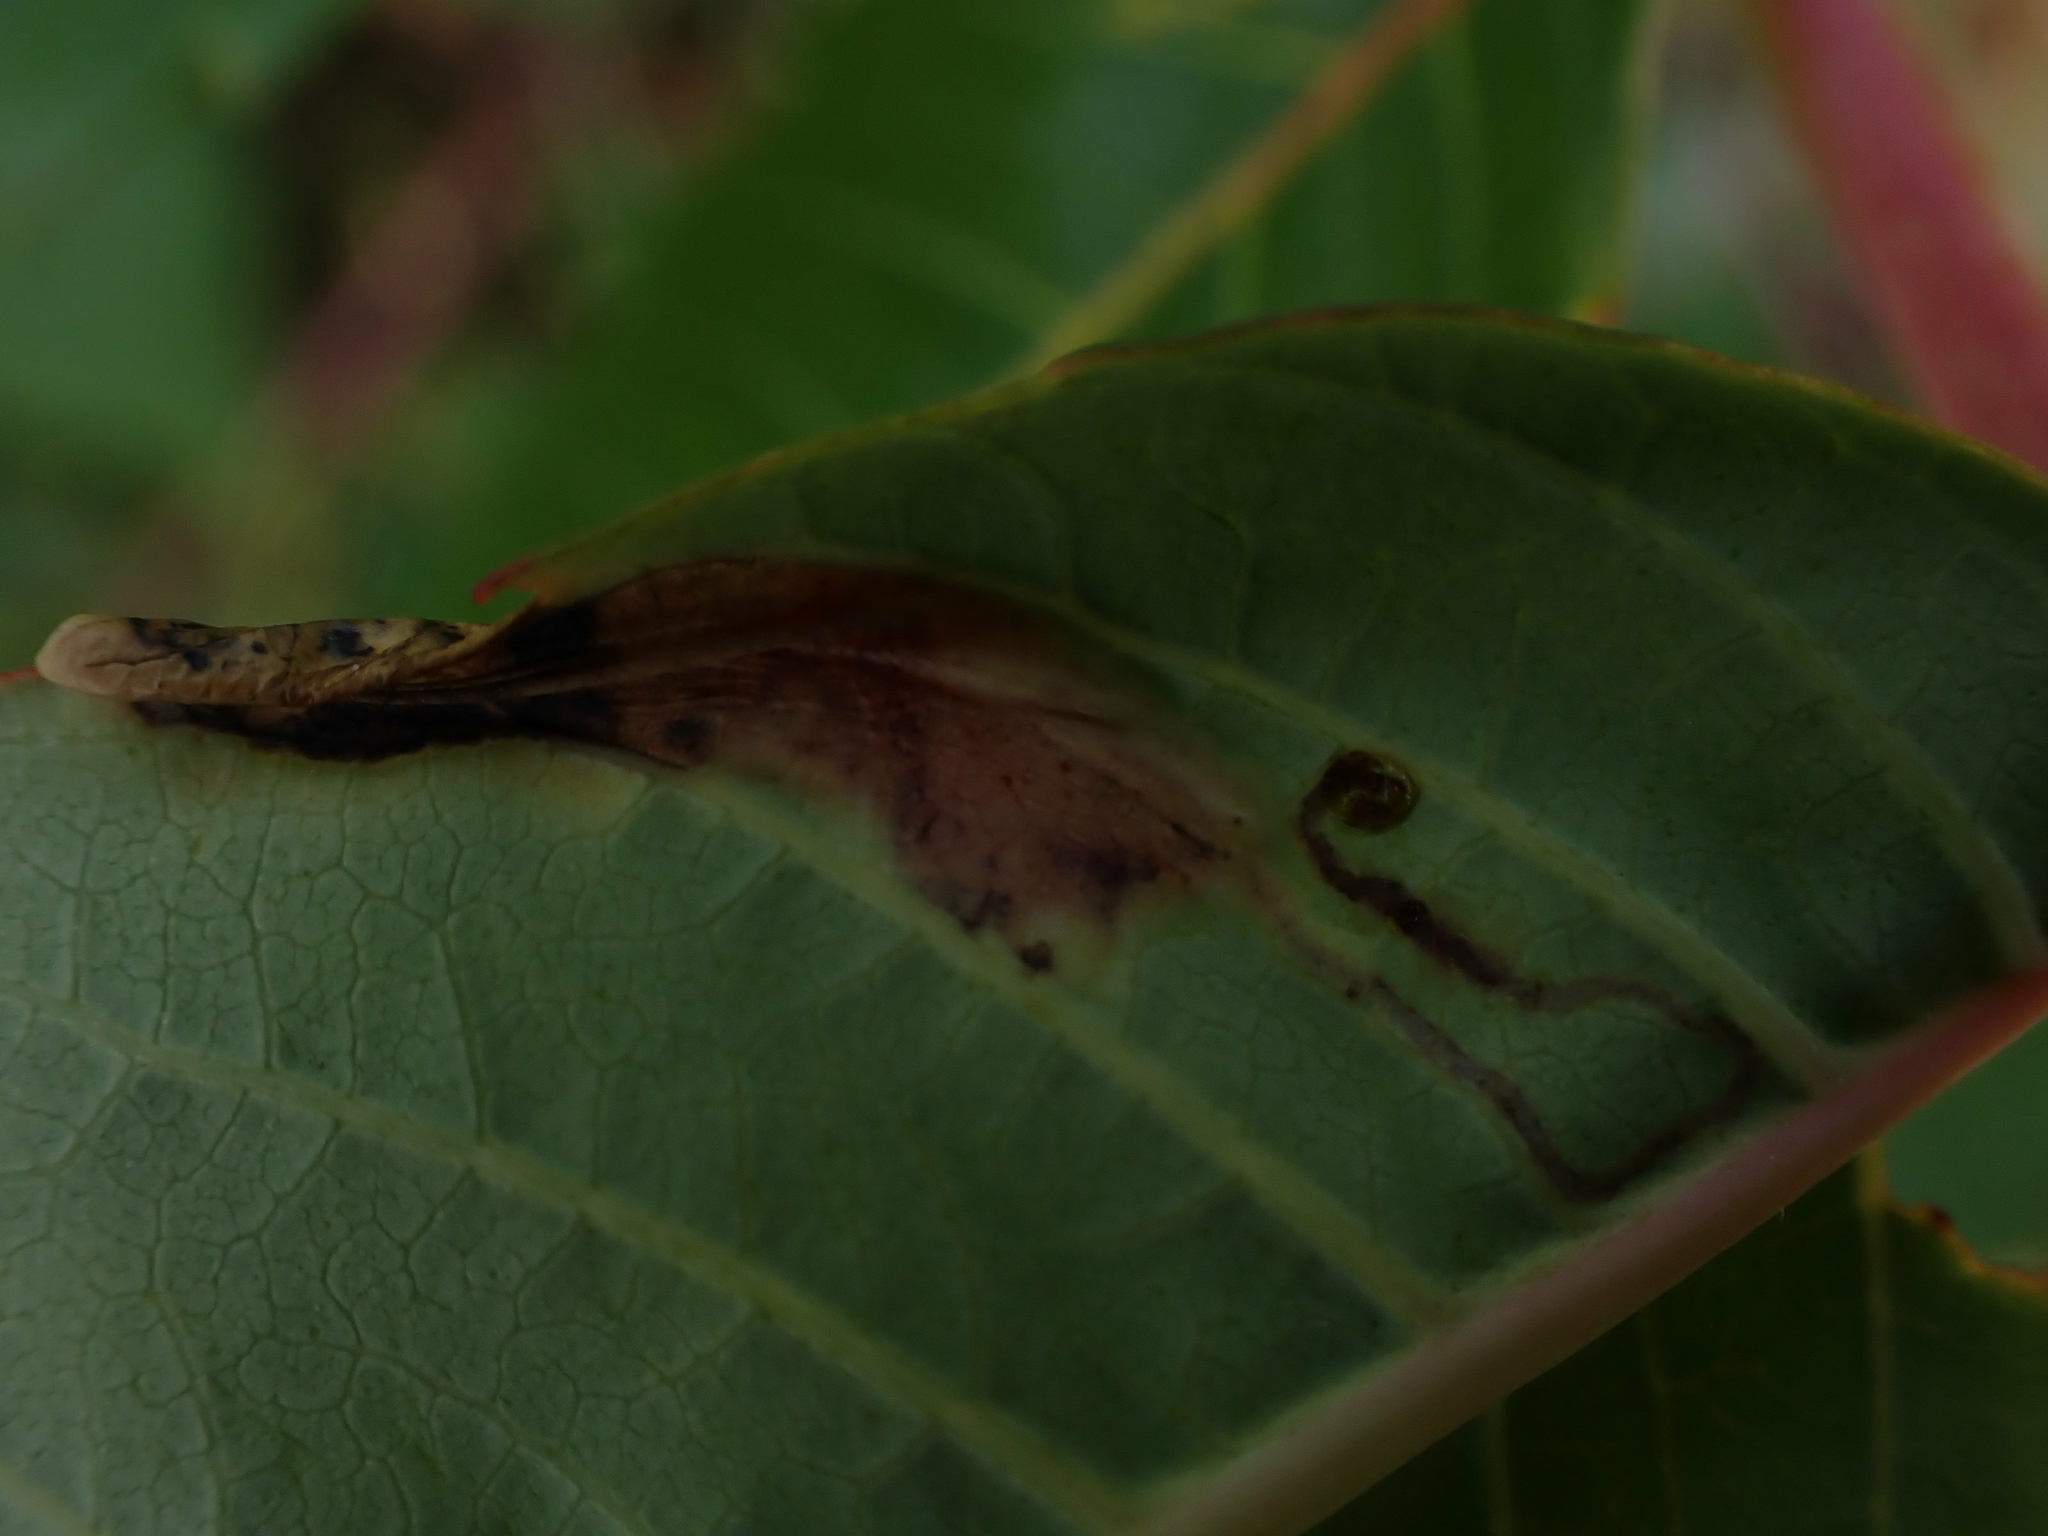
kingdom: Animalia
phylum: Arthropoda
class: Insecta
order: Lepidoptera
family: Gracillariidae
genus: Caloptilia
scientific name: Caloptilia rhoifoliella
